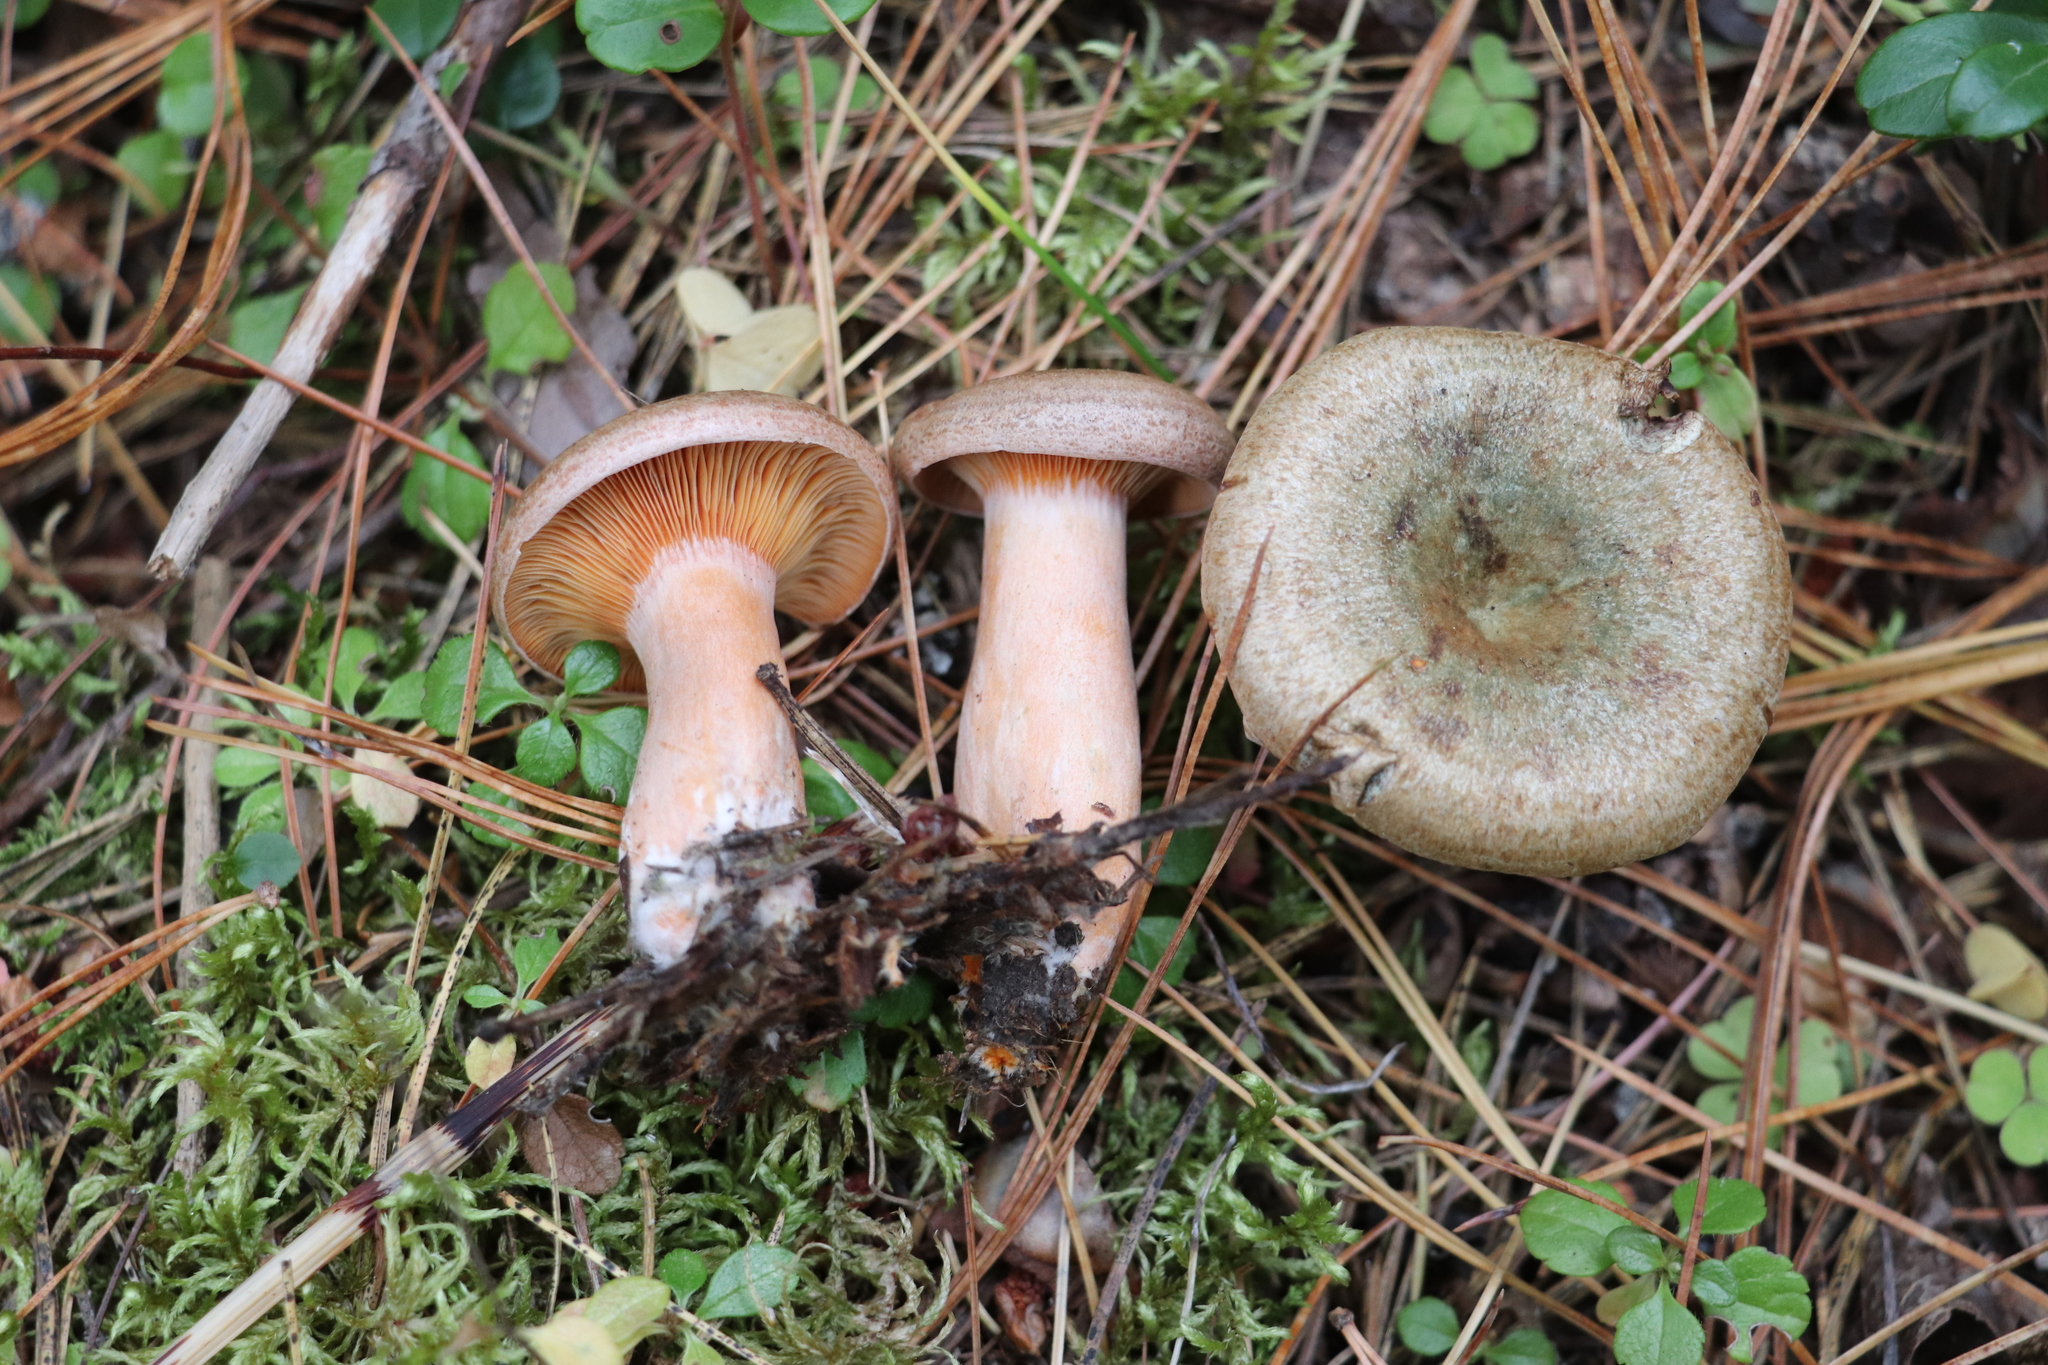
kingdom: Fungi
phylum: Basidiomycota
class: Agaricomycetes
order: Russulales
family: Russulaceae
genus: Lactarius
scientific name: Lactarius deterrimus
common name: False saffron milkcap
